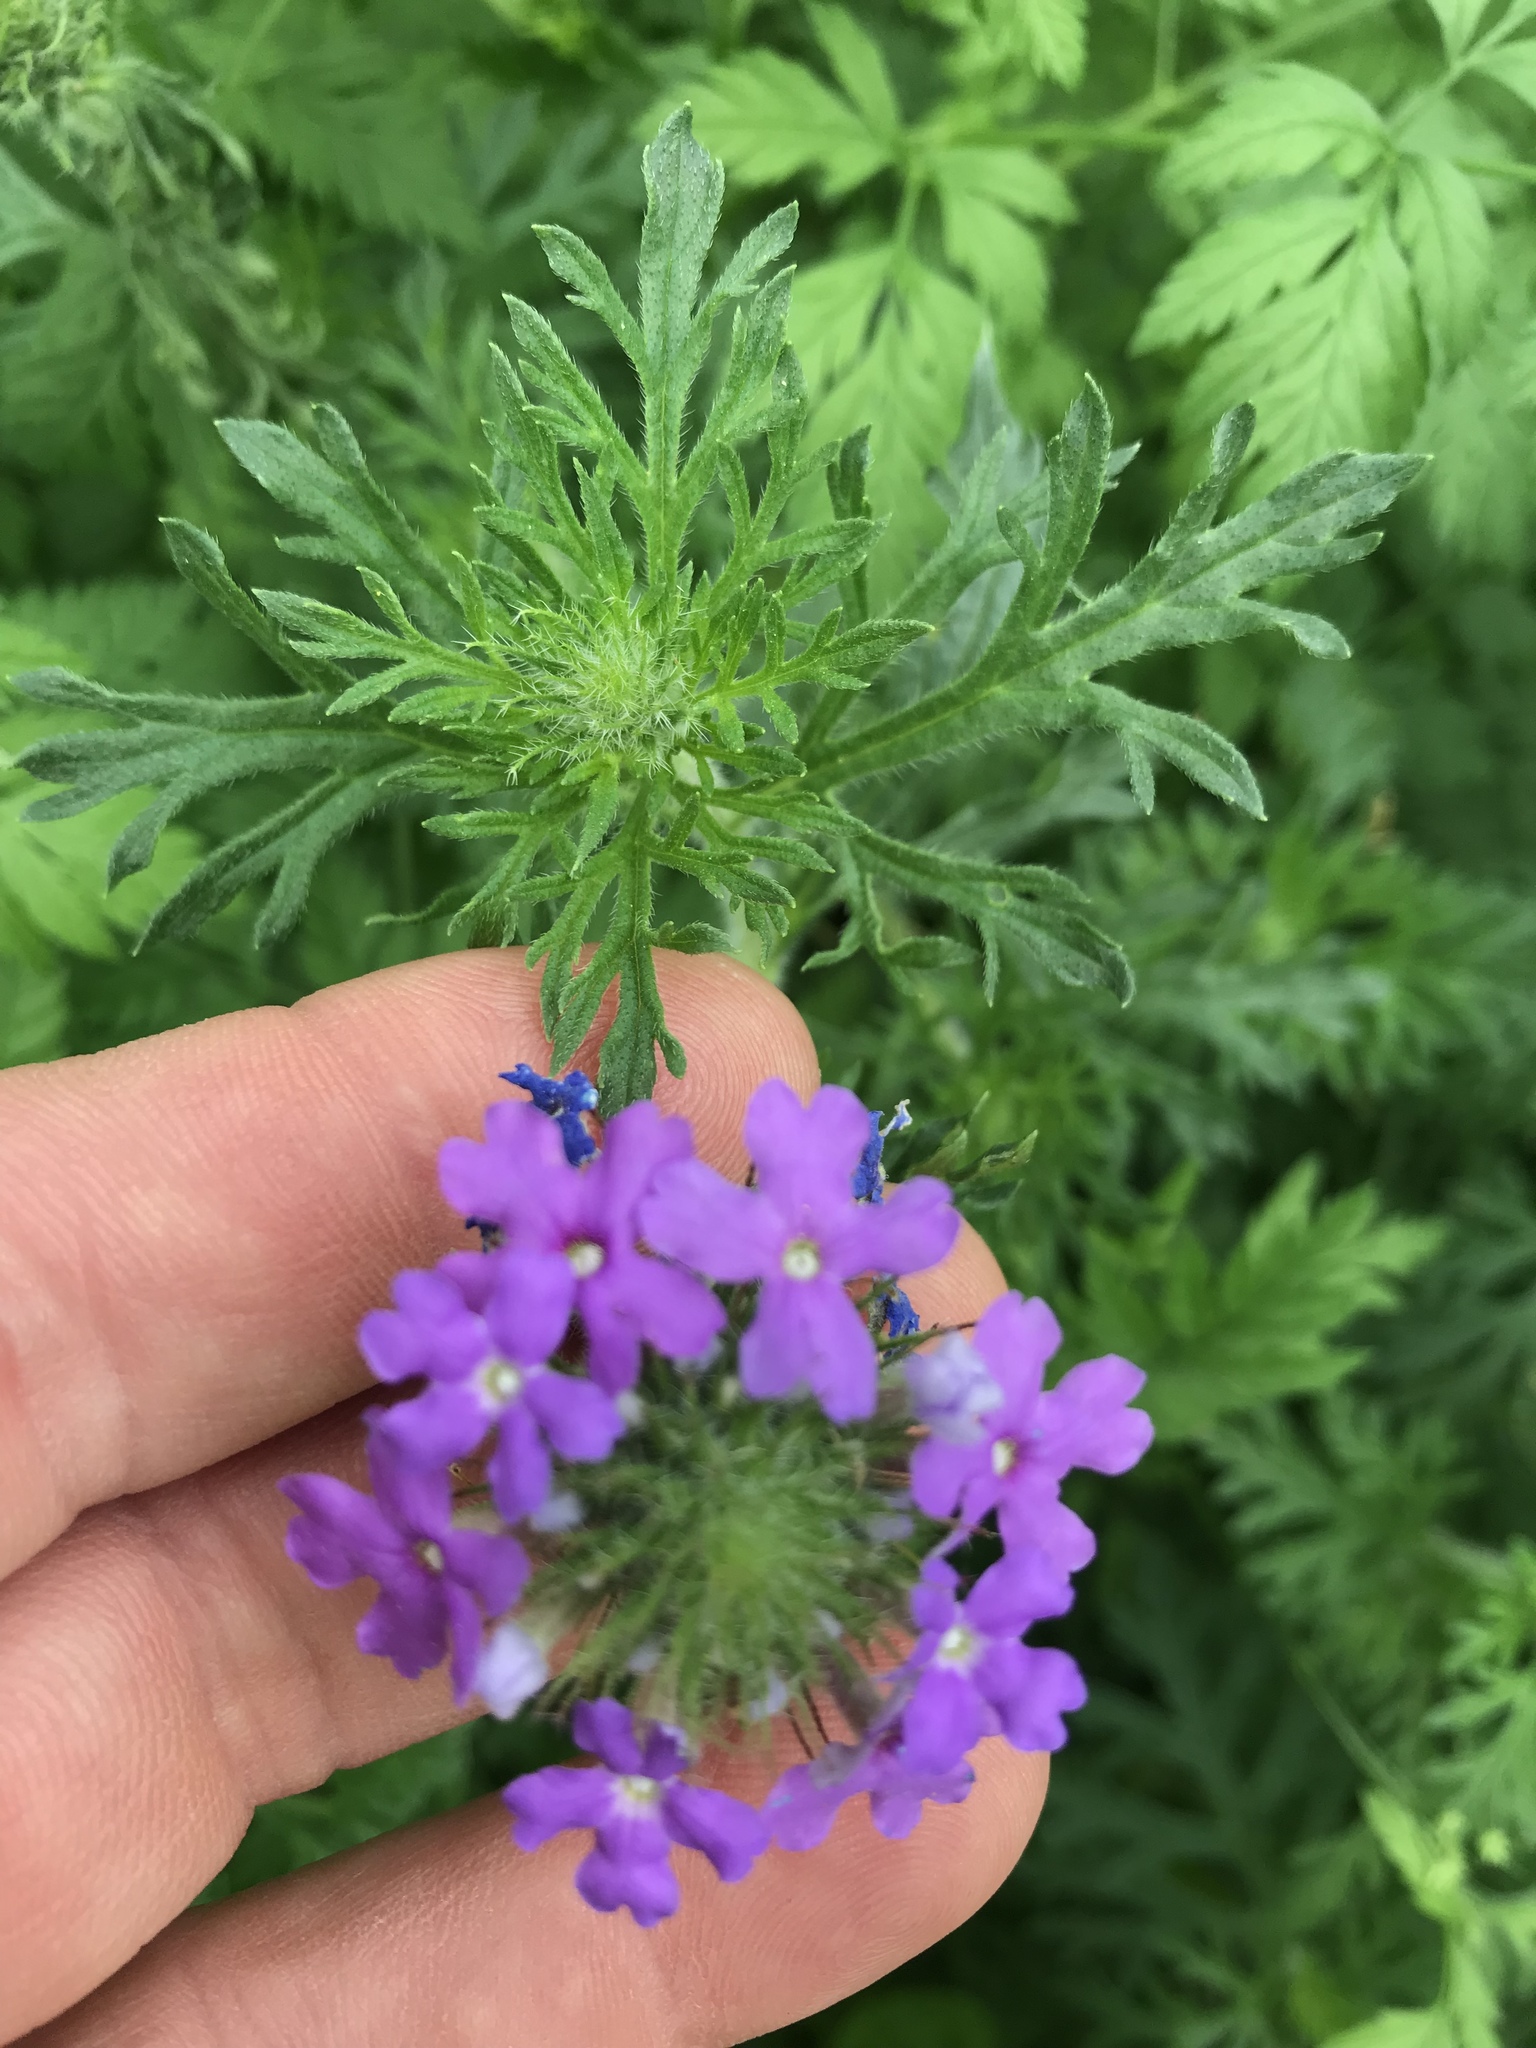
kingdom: Plantae
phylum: Tracheophyta
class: Magnoliopsida
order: Lamiales
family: Verbenaceae
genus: Verbena
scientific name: Verbena bipinnatifida
